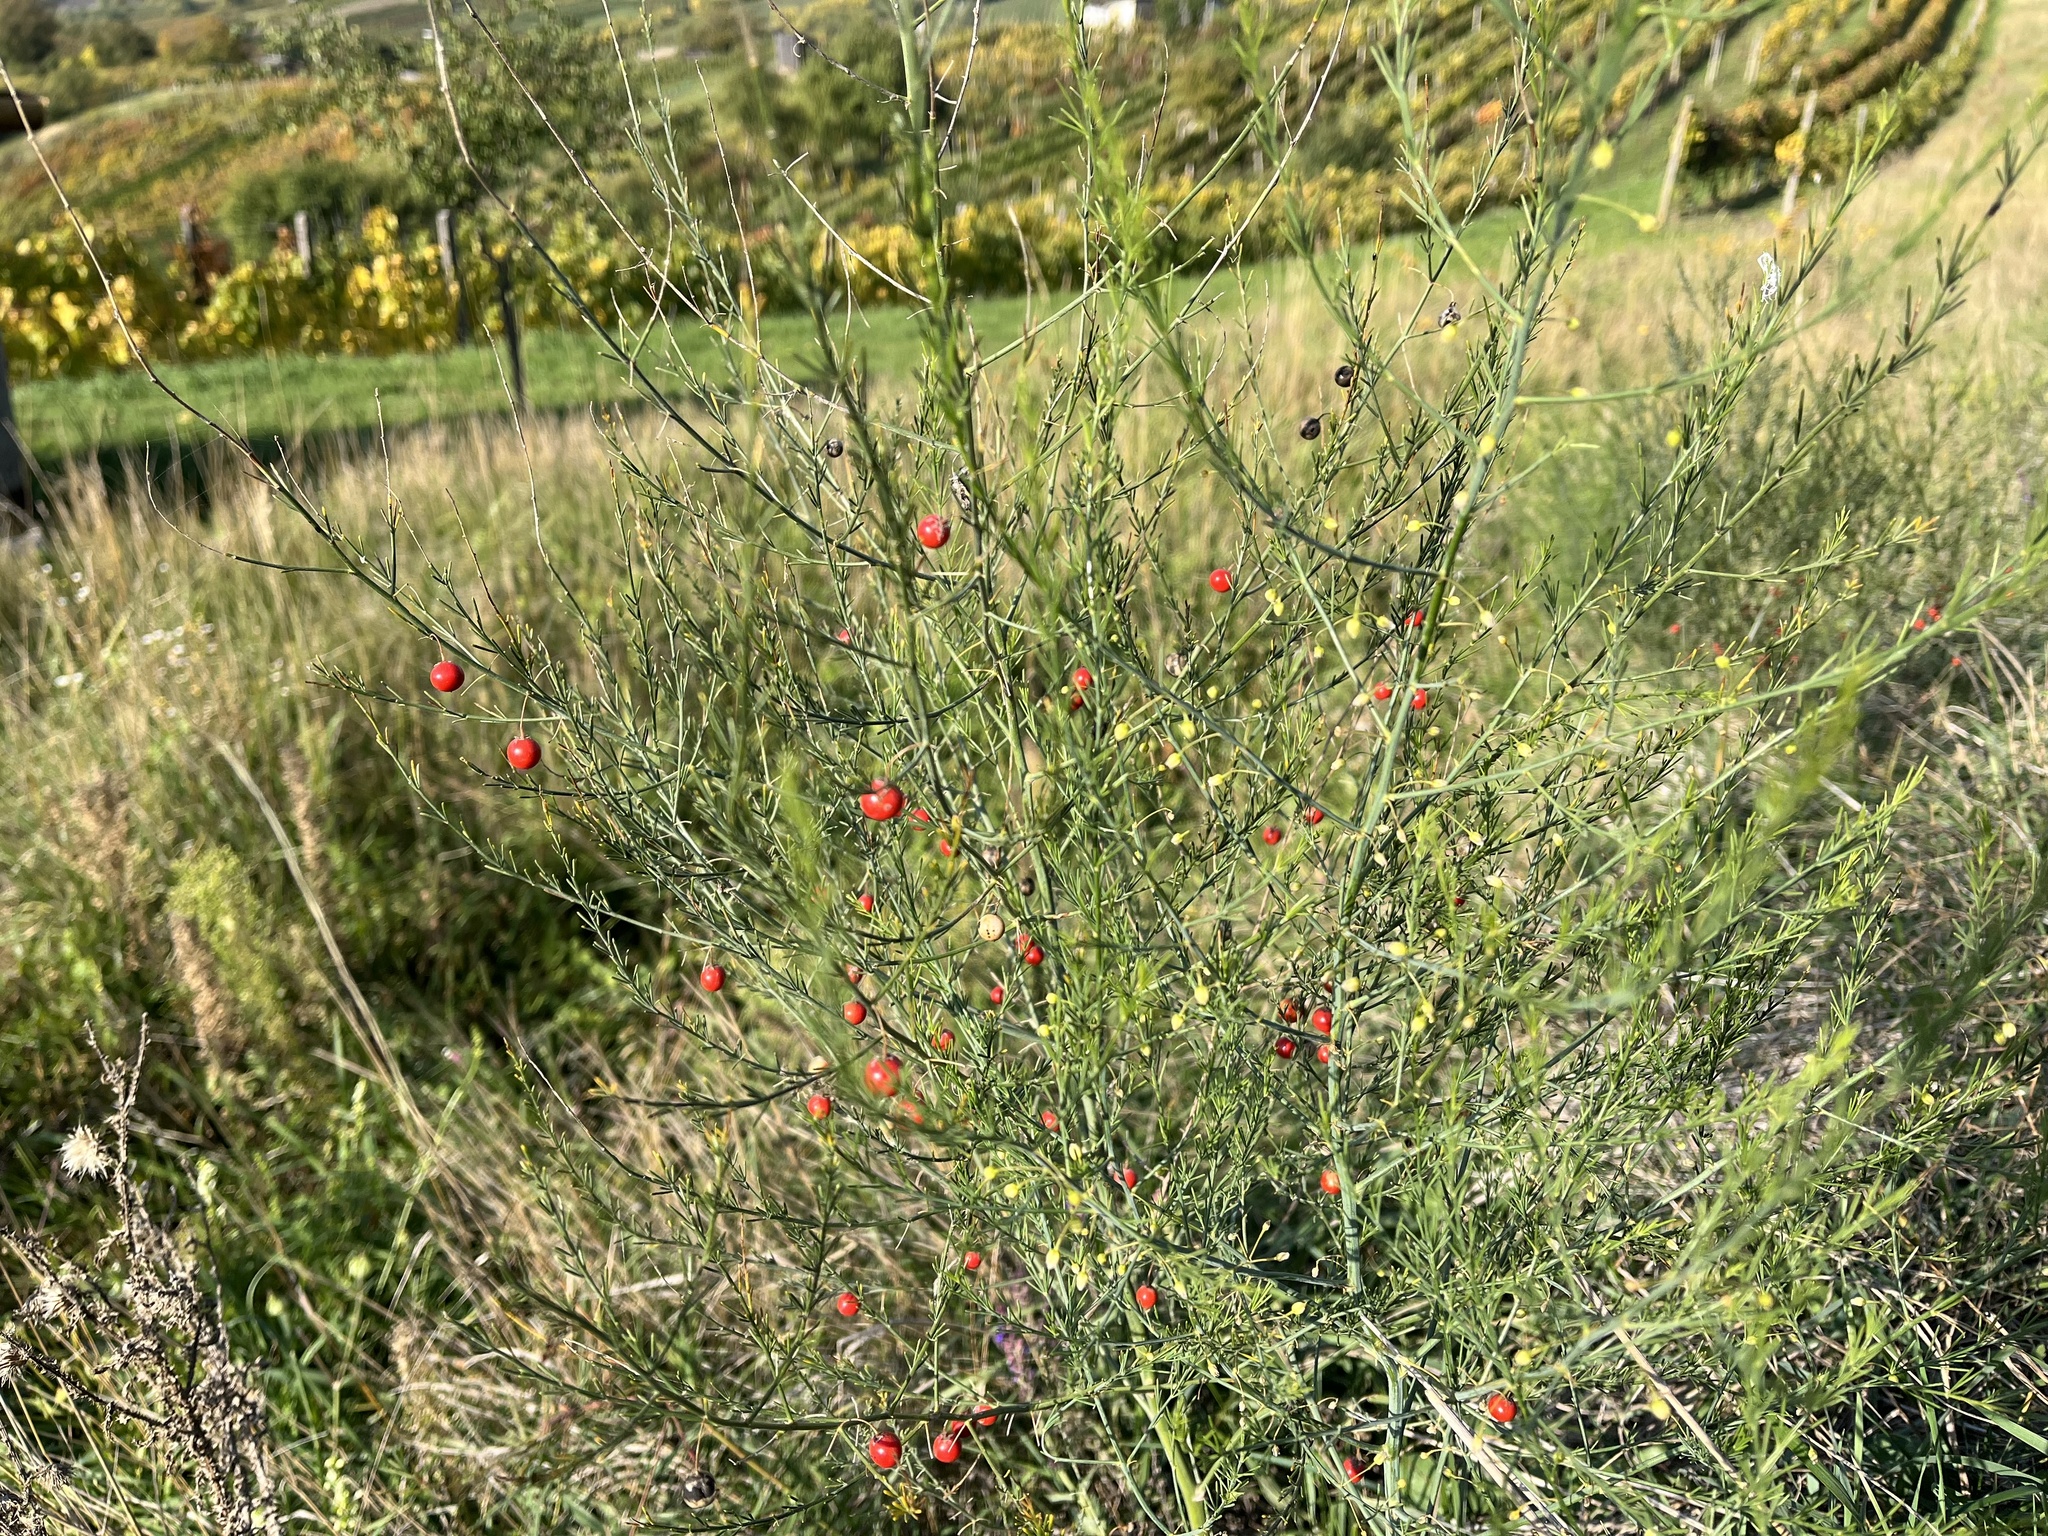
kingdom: Plantae
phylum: Tracheophyta
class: Liliopsida
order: Asparagales
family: Asparagaceae
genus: Asparagus
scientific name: Asparagus officinalis
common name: Garden asparagus
